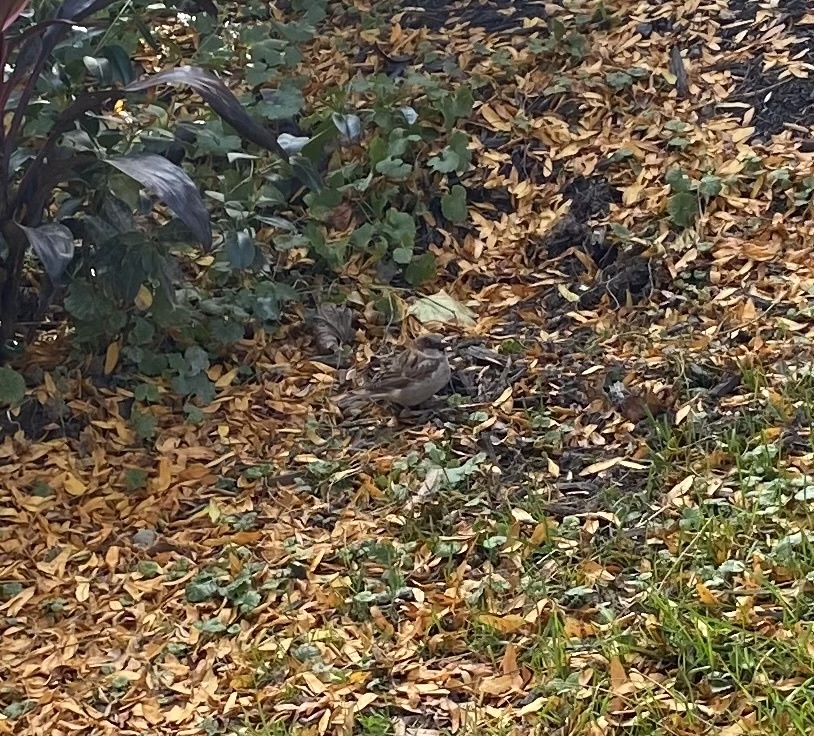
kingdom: Animalia
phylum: Chordata
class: Aves
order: Passeriformes
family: Passeridae
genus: Passer
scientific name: Passer domesticus
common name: House sparrow
